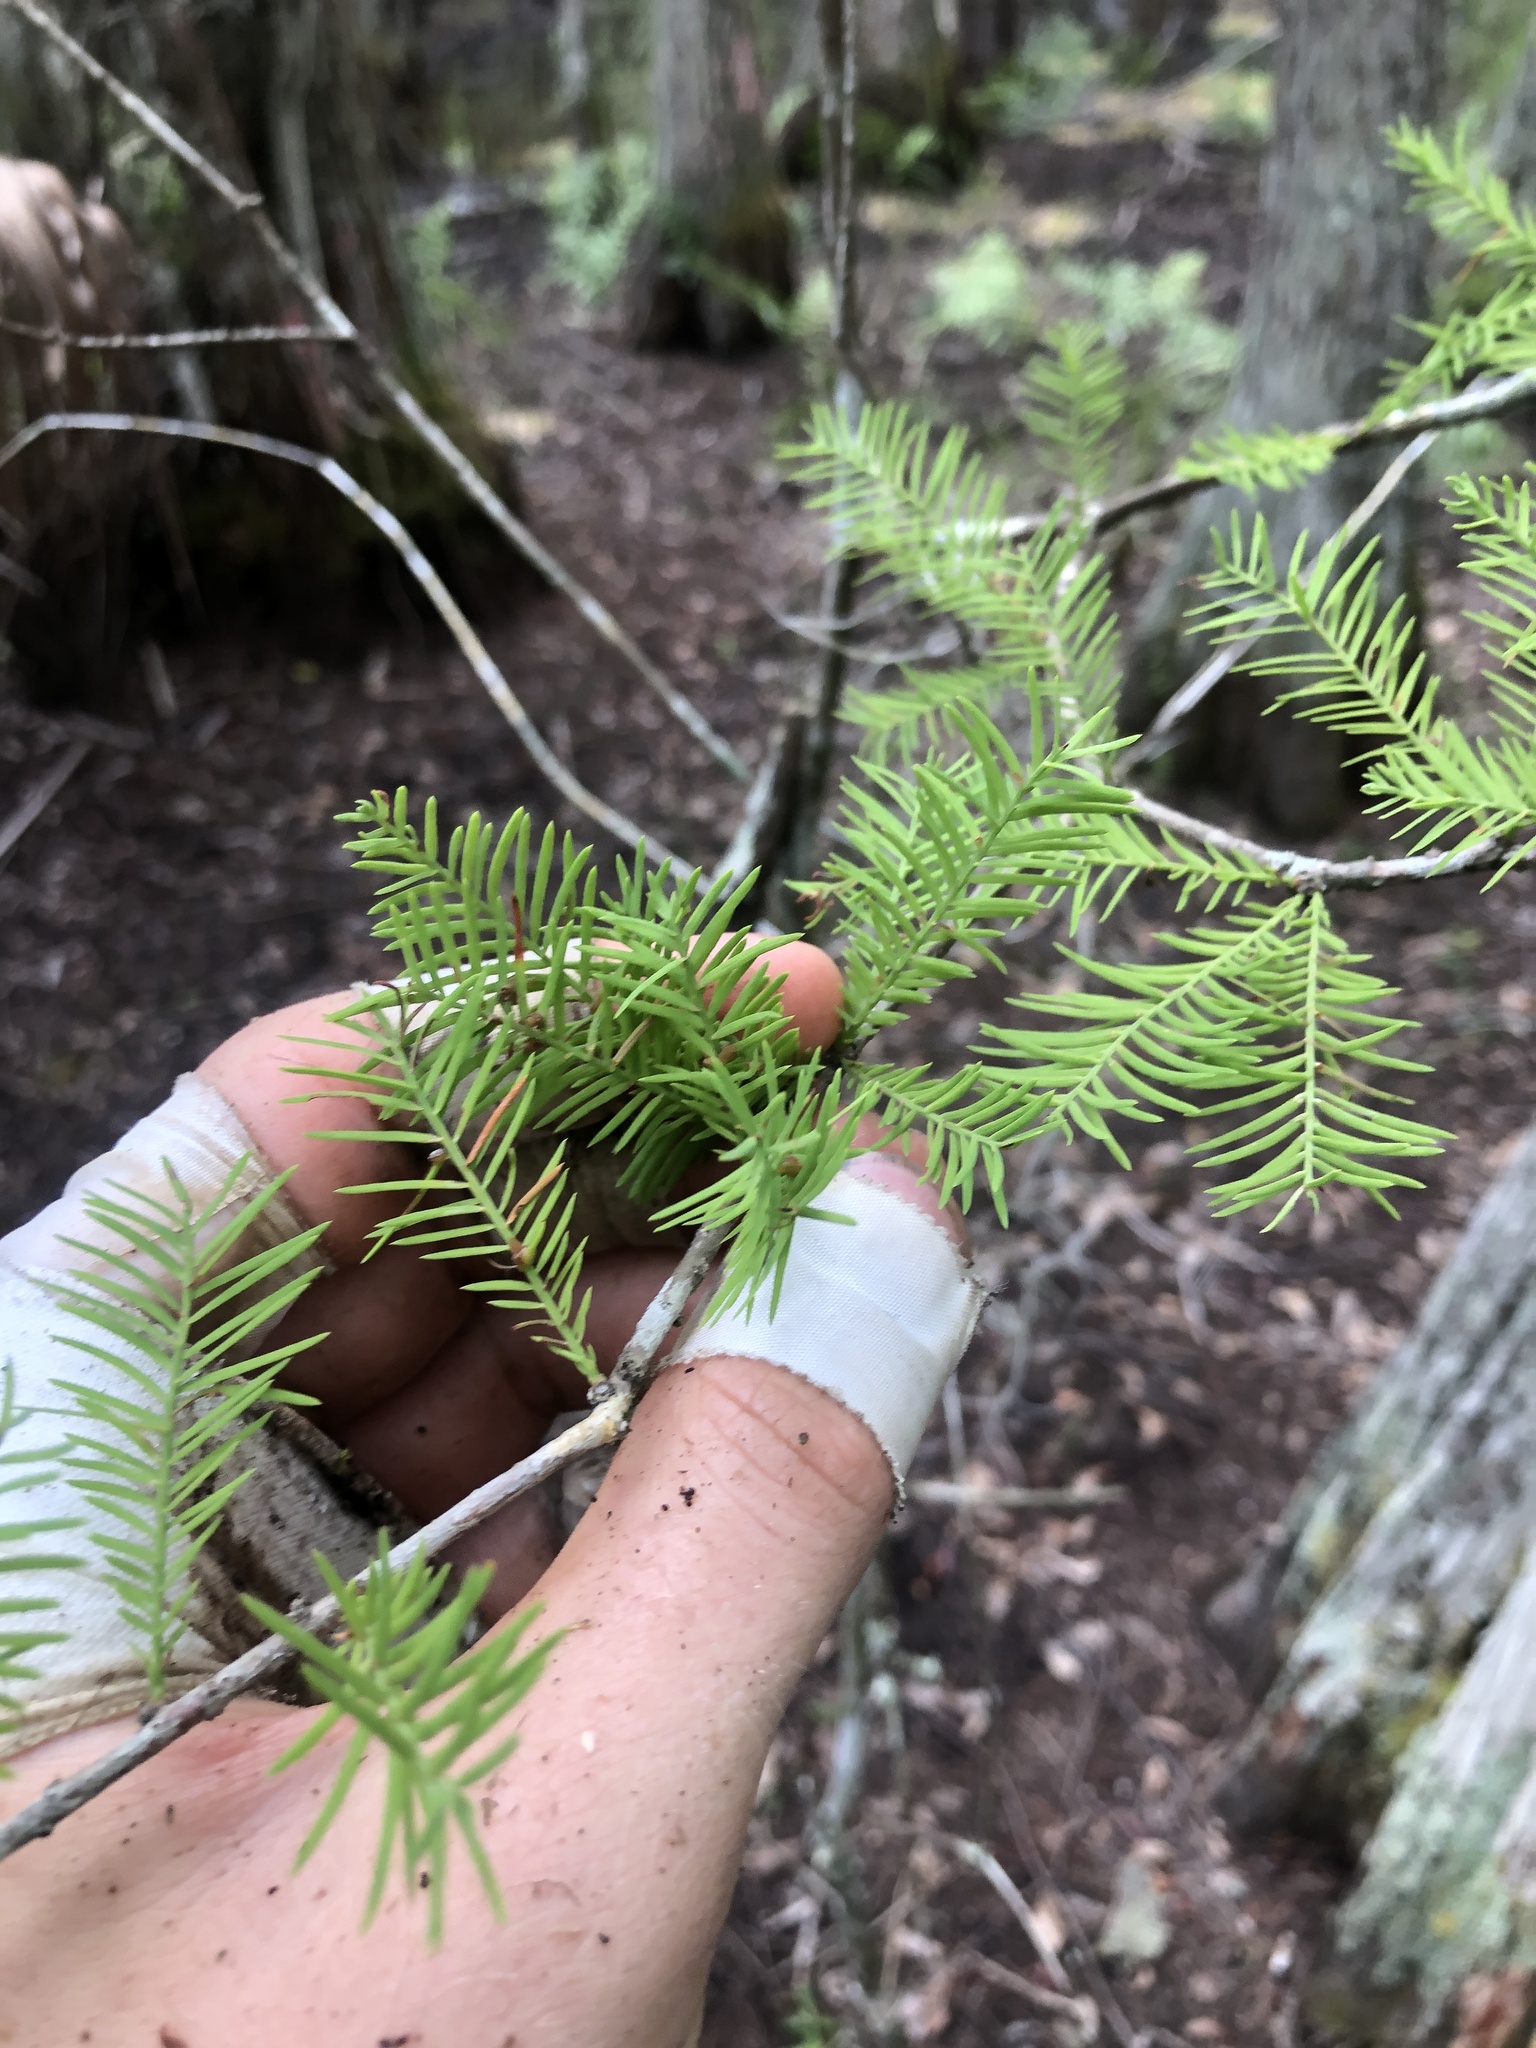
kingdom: Plantae
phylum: Tracheophyta
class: Pinopsida
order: Pinales
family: Cupressaceae
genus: Taxodium
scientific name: Taxodium distichum
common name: Bald cypress
